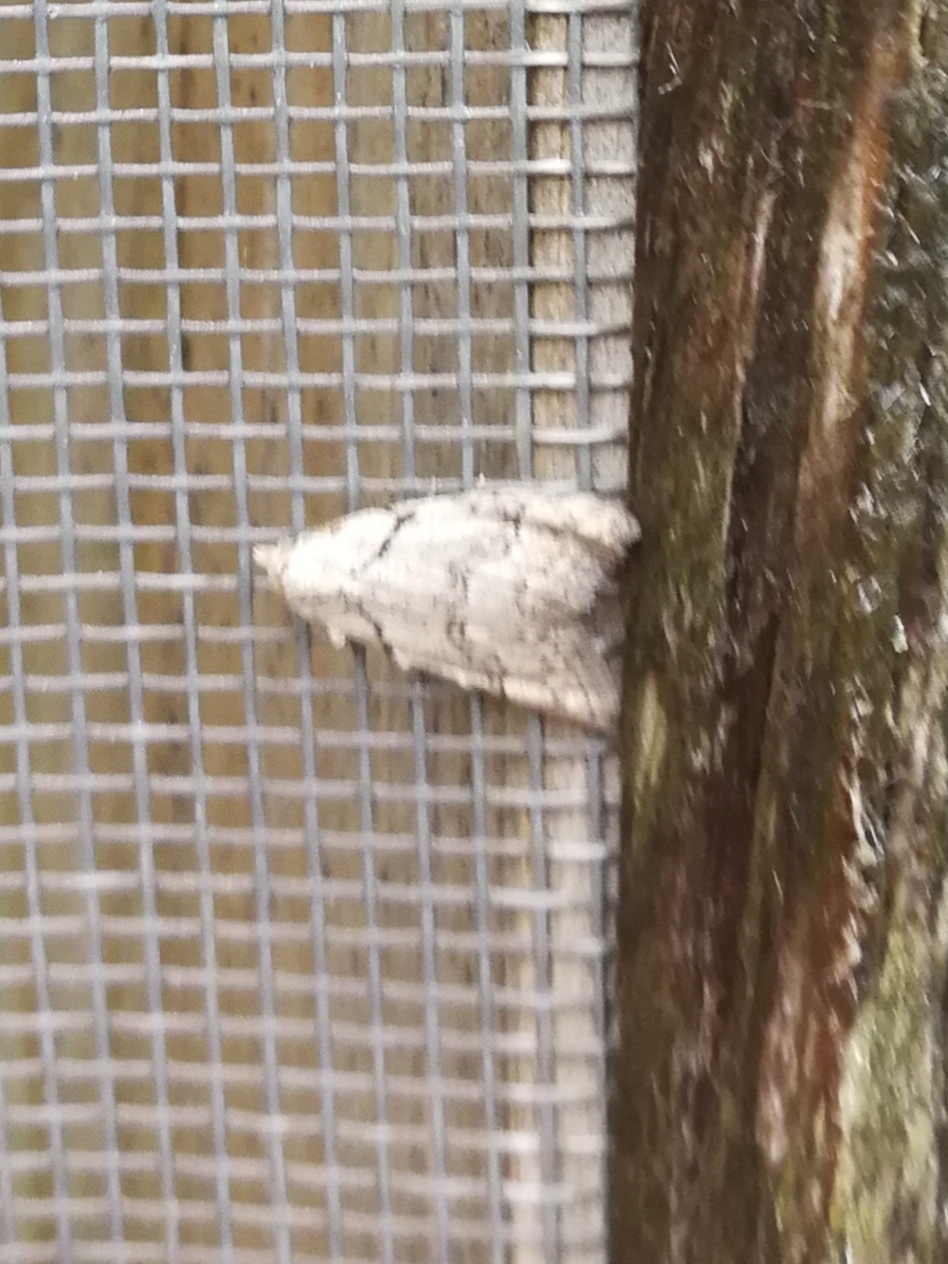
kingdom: Animalia
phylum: Arthropoda
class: Insecta
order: Lepidoptera
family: Nolidae
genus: Nola
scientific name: Nola thymula
